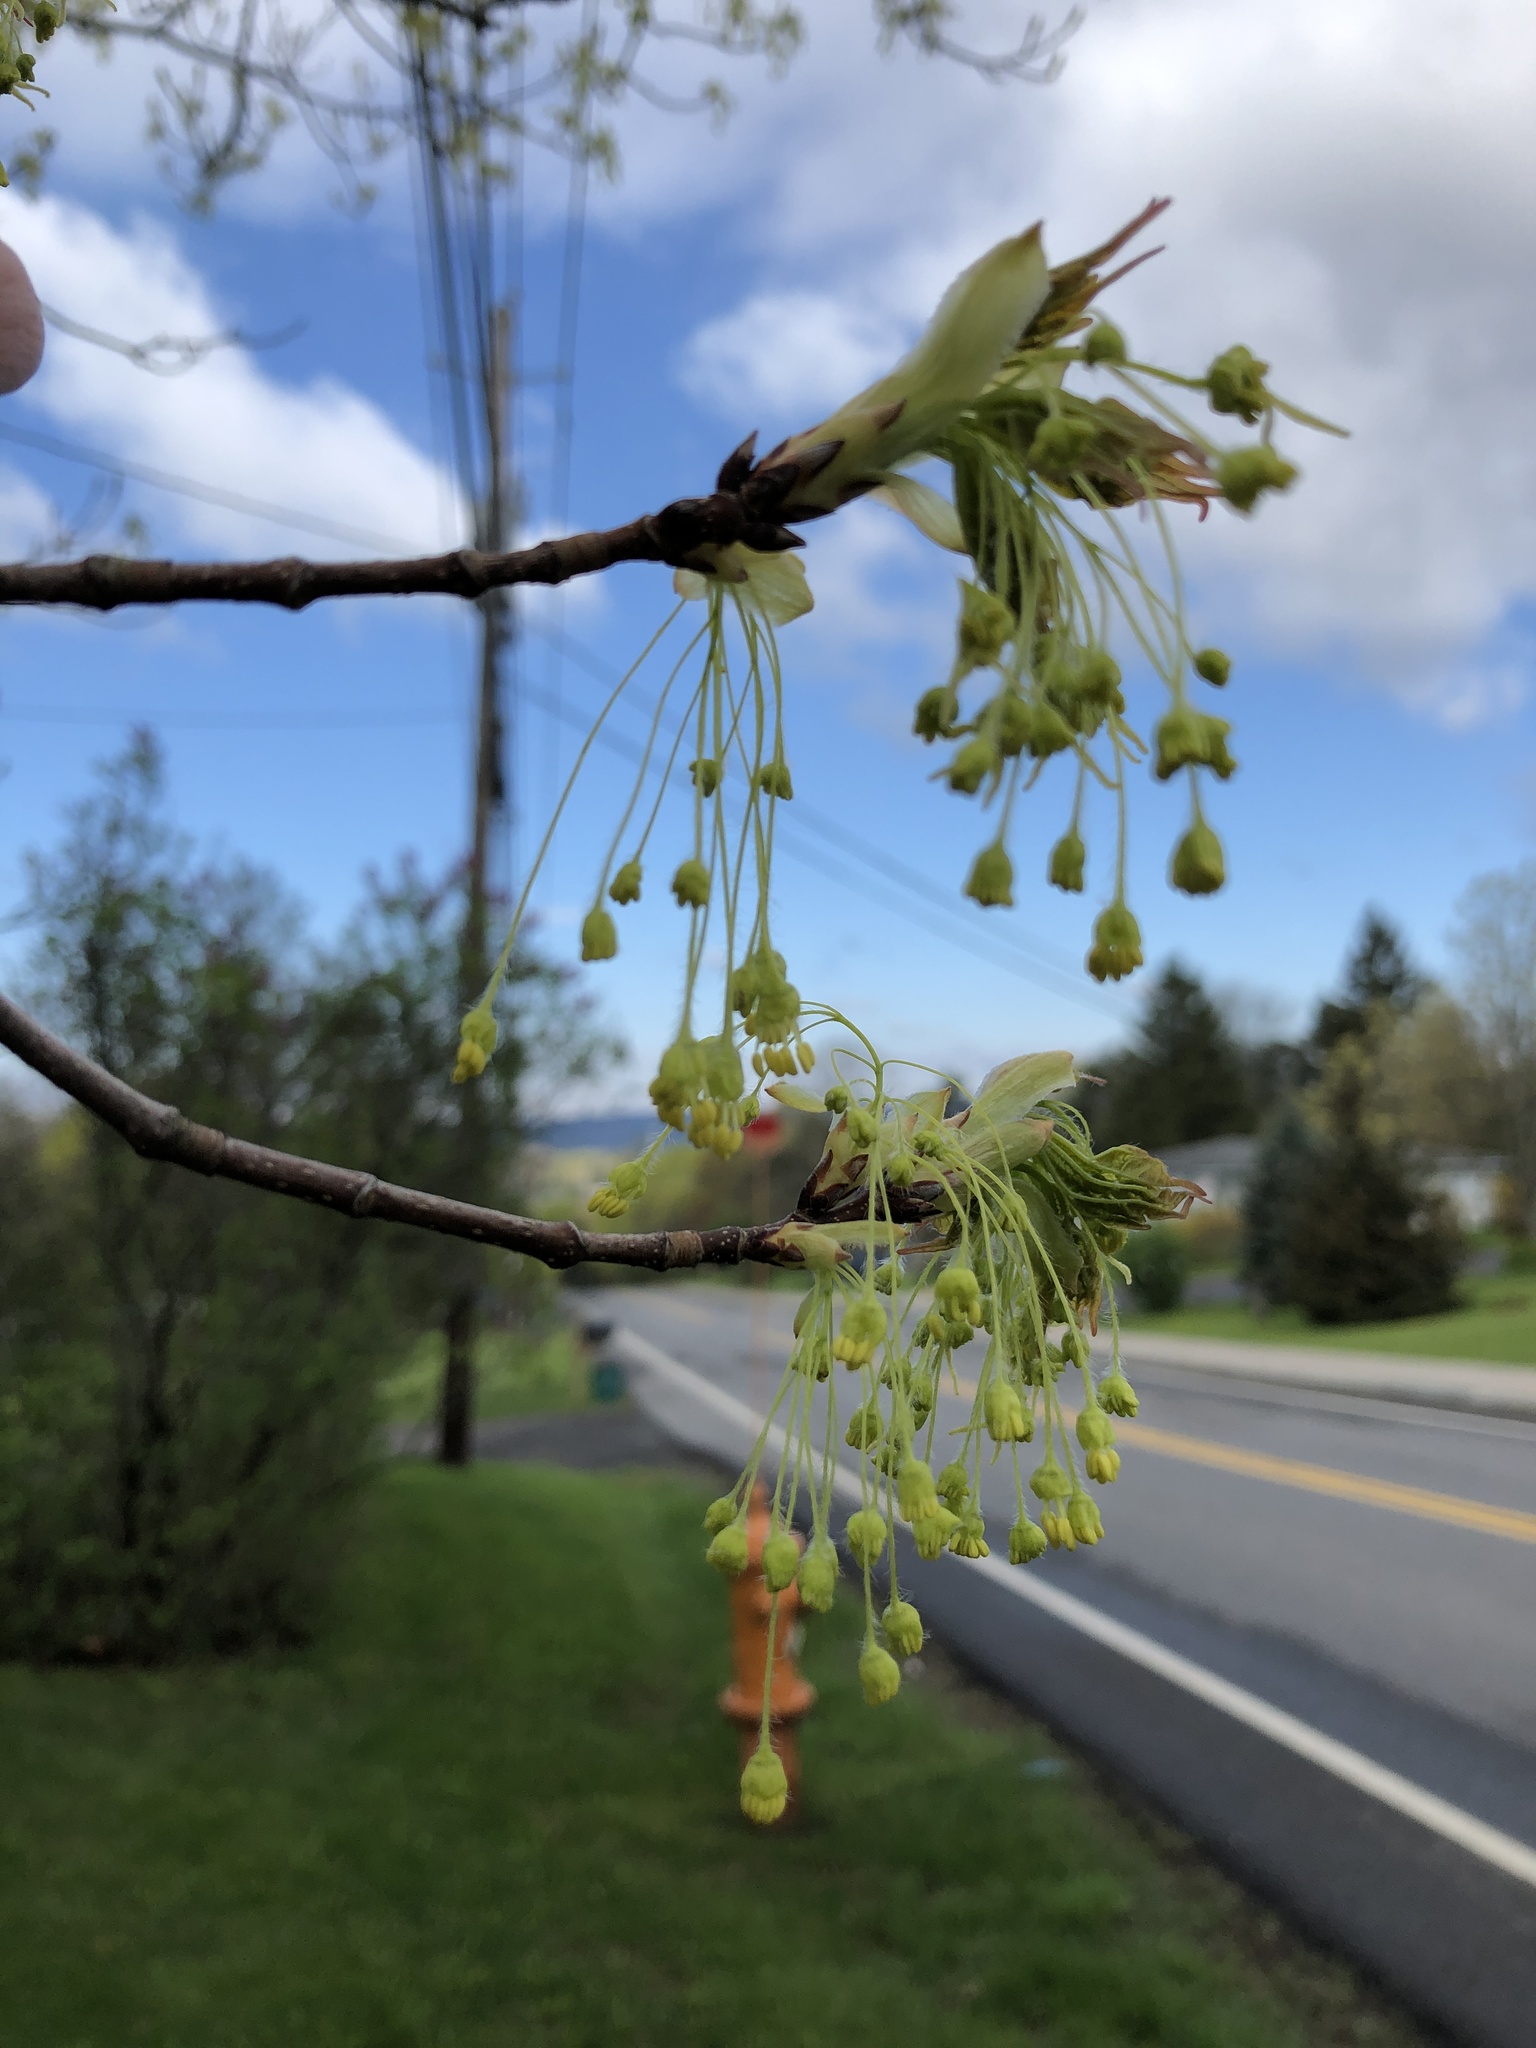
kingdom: Plantae
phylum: Tracheophyta
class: Magnoliopsida
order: Sapindales
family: Sapindaceae
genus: Acer
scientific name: Acer saccharum
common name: Sugar maple
